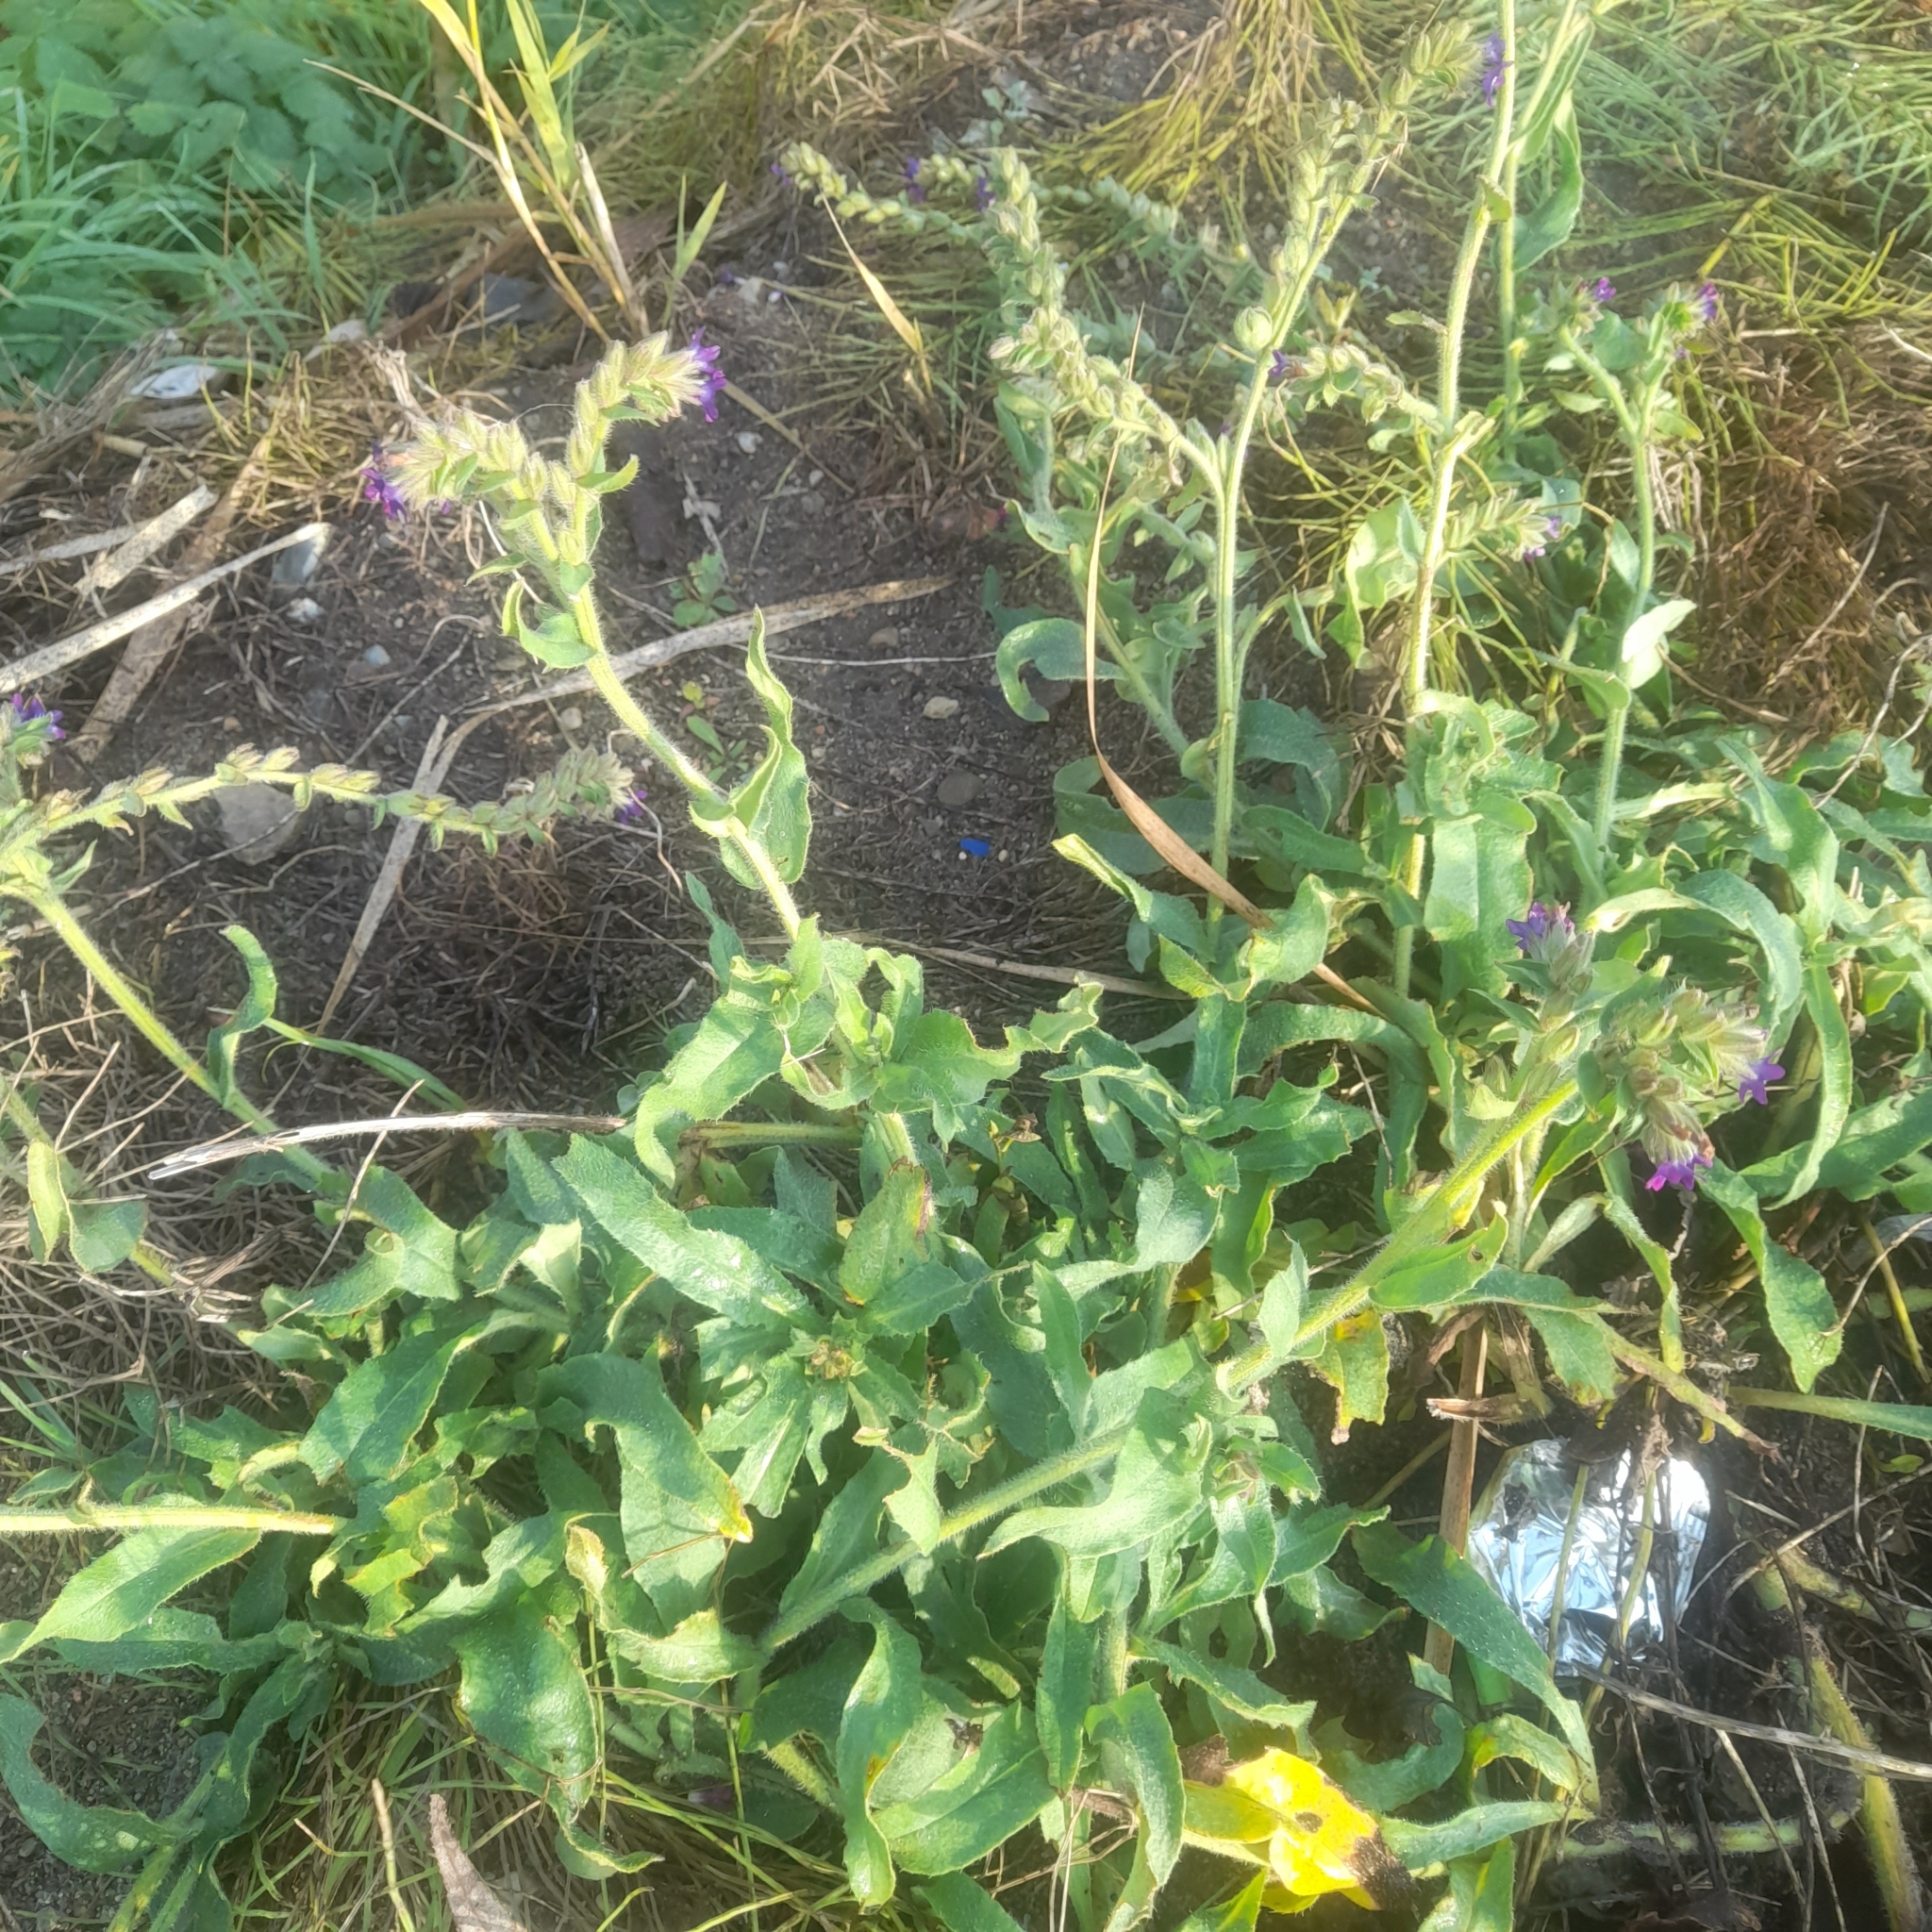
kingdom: Plantae
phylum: Tracheophyta
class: Magnoliopsida
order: Boraginales
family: Boraginaceae
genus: Anchusa
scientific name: Anchusa officinalis
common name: Alkanet
